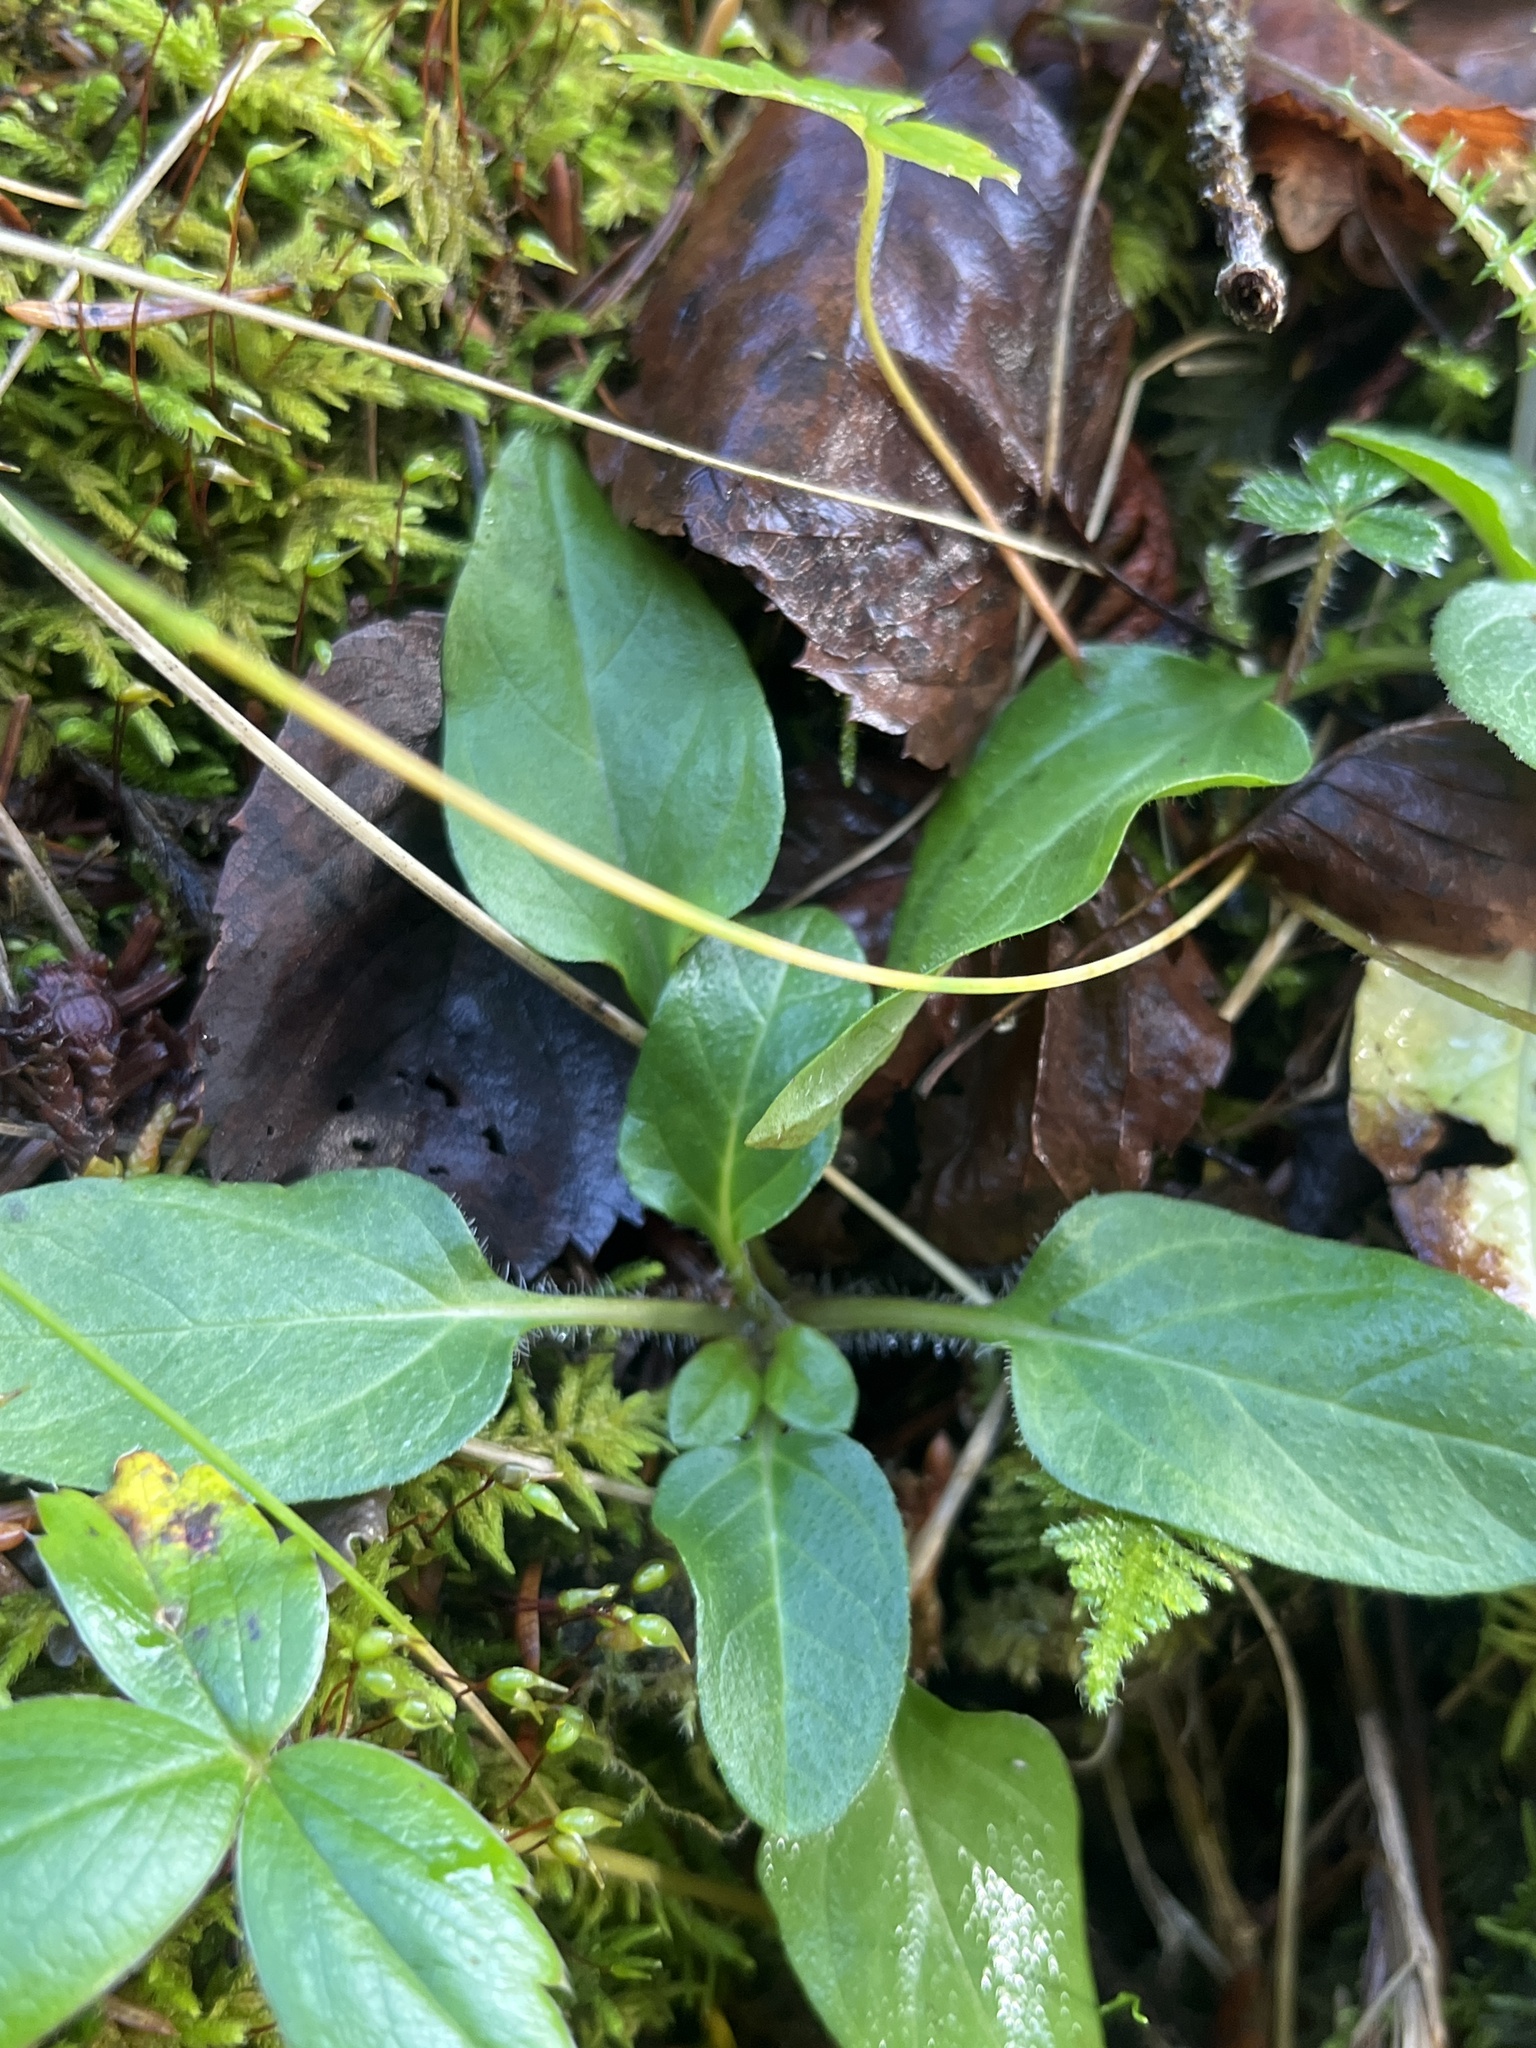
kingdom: Plantae
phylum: Tracheophyta
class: Magnoliopsida
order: Lamiales
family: Lamiaceae
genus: Prunella
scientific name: Prunella vulgaris
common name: Heal-all
